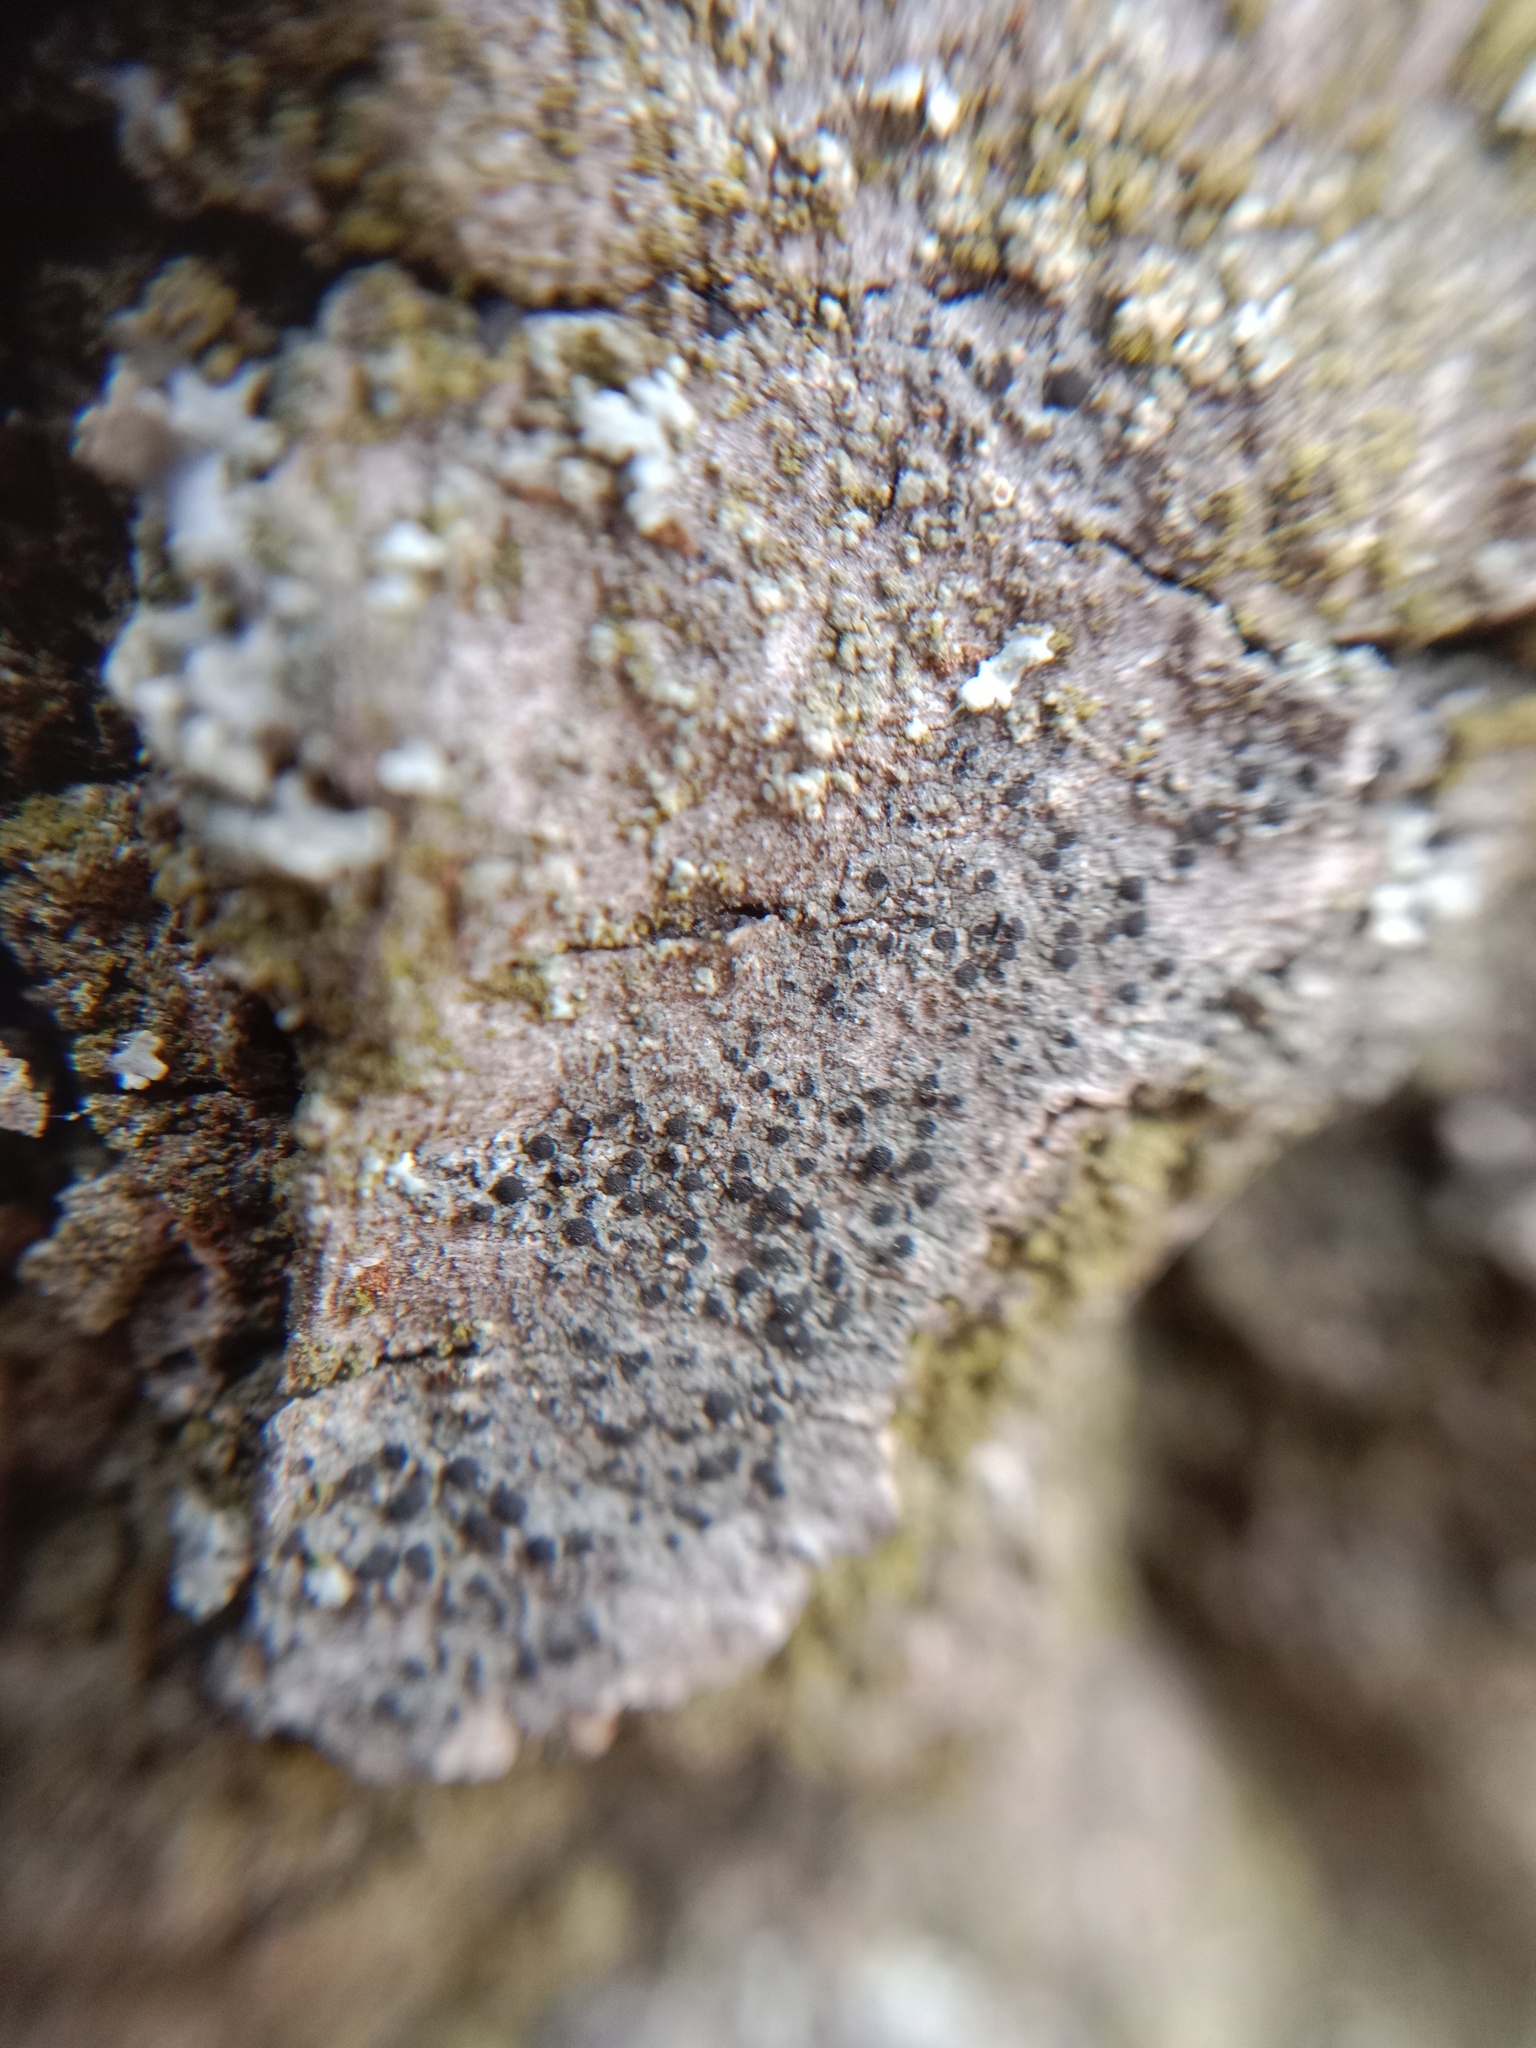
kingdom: Fungi
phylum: Ascomycota
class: Lecanoromycetes
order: Caliciales
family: Caliciaceae
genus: Amandinea
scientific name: Amandinea punctata
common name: Tiny button lichen
